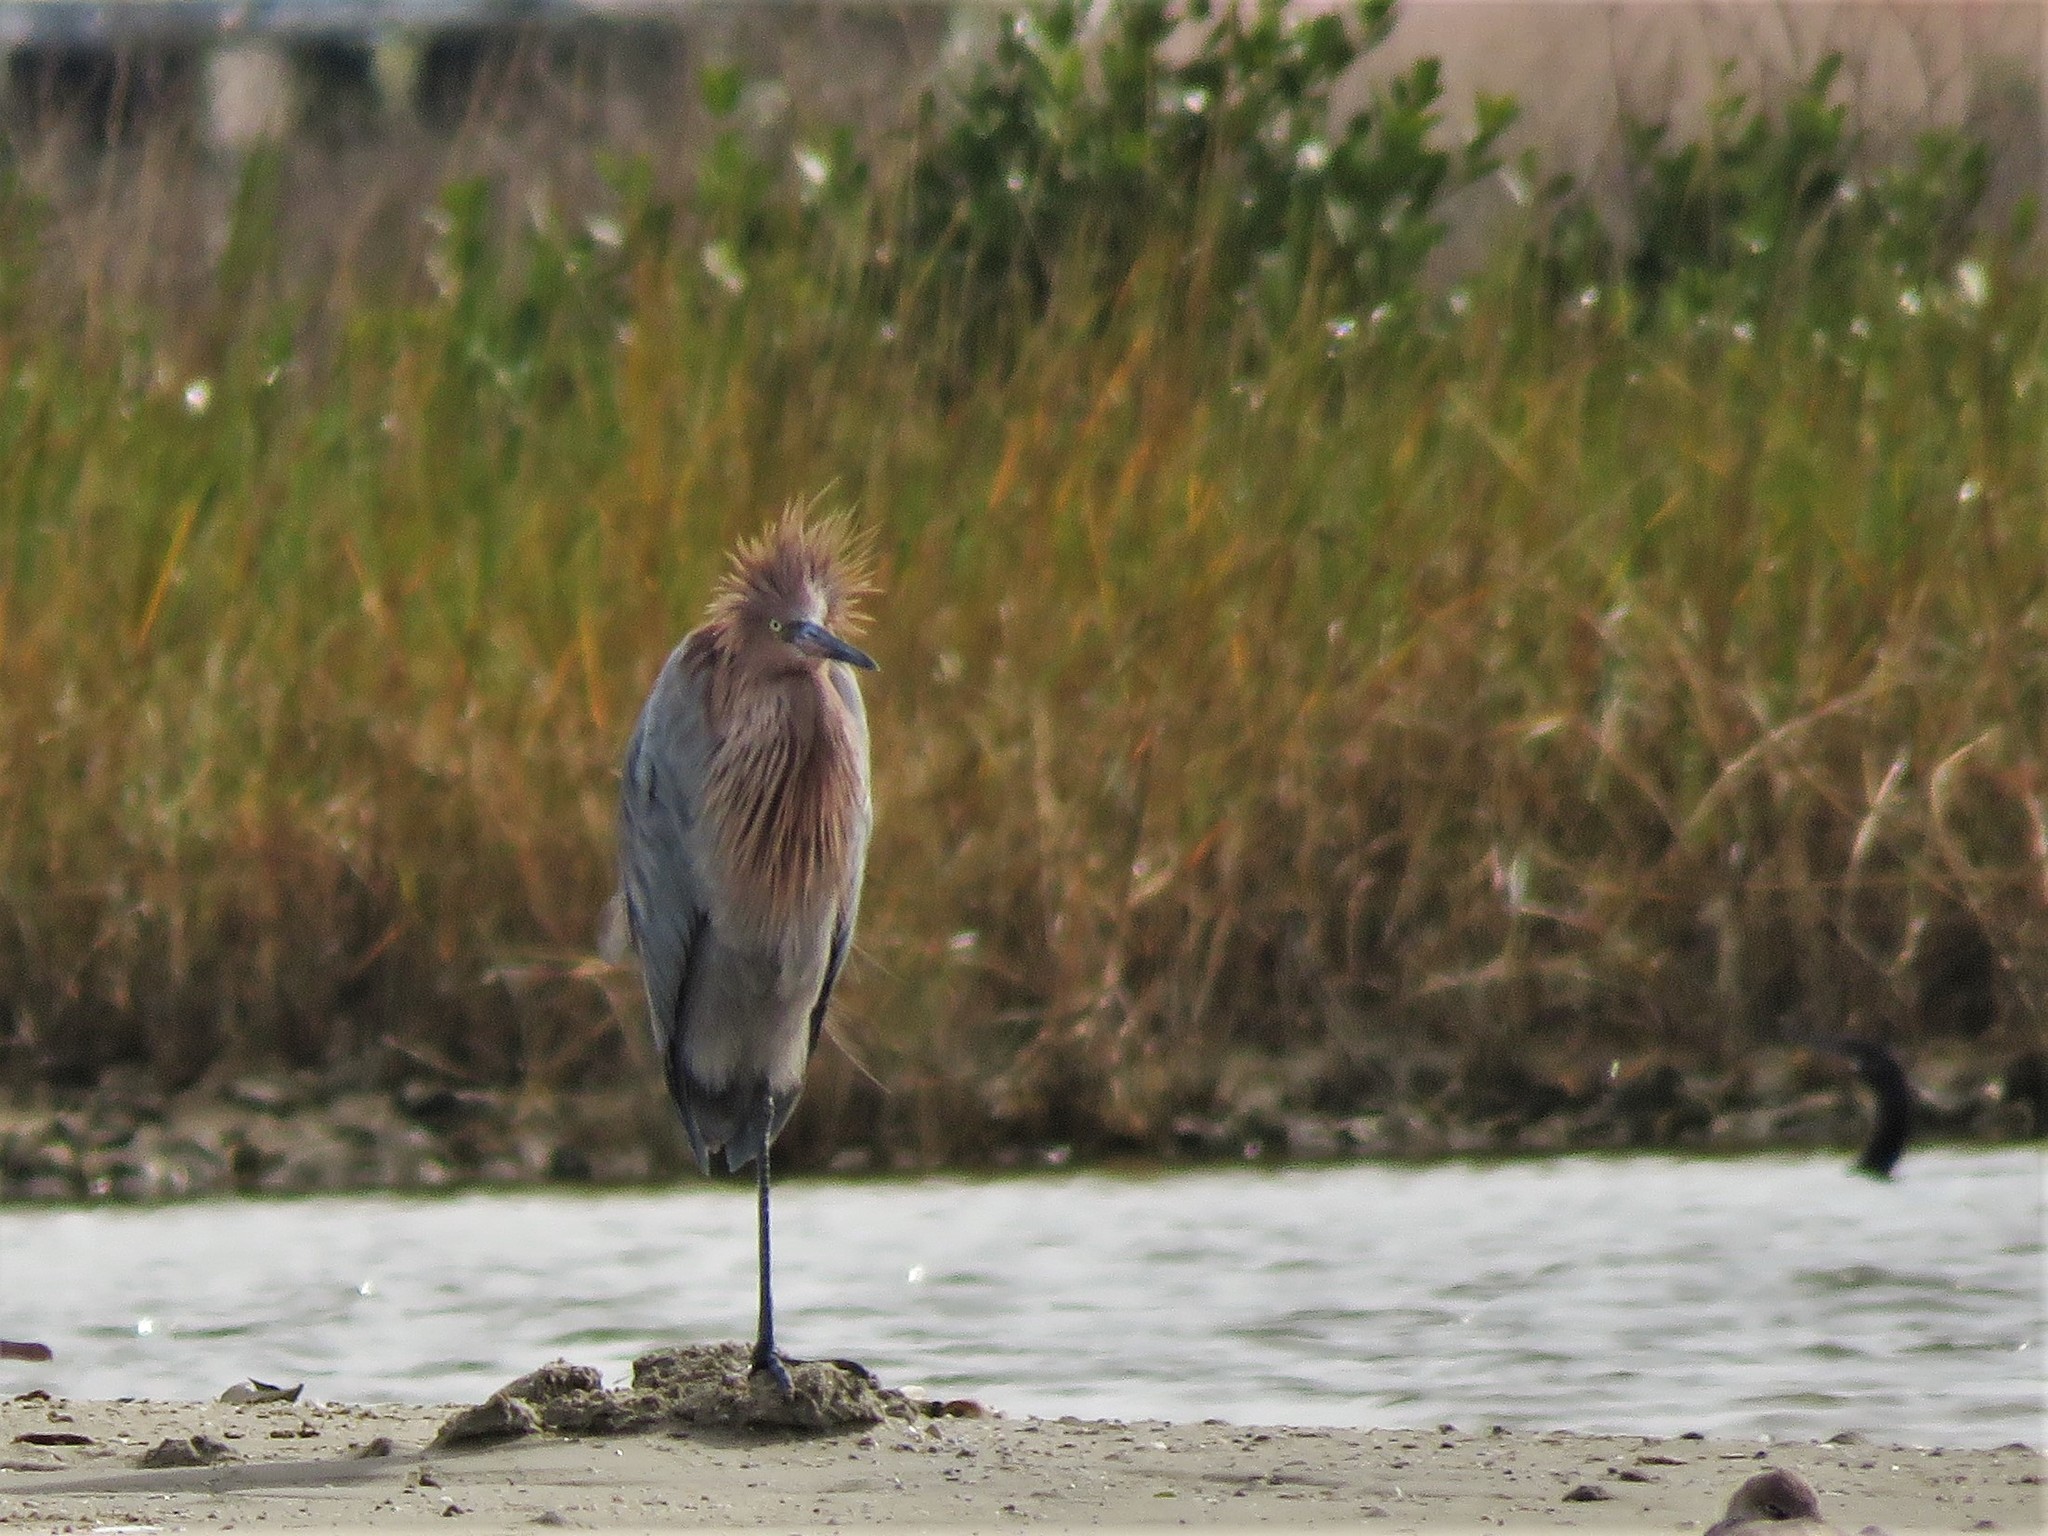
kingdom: Animalia
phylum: Chordata
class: Aves
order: Pelecaniformes
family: Ardeidae
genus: Egretta
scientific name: Egretta rufescens
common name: Reddish egret
